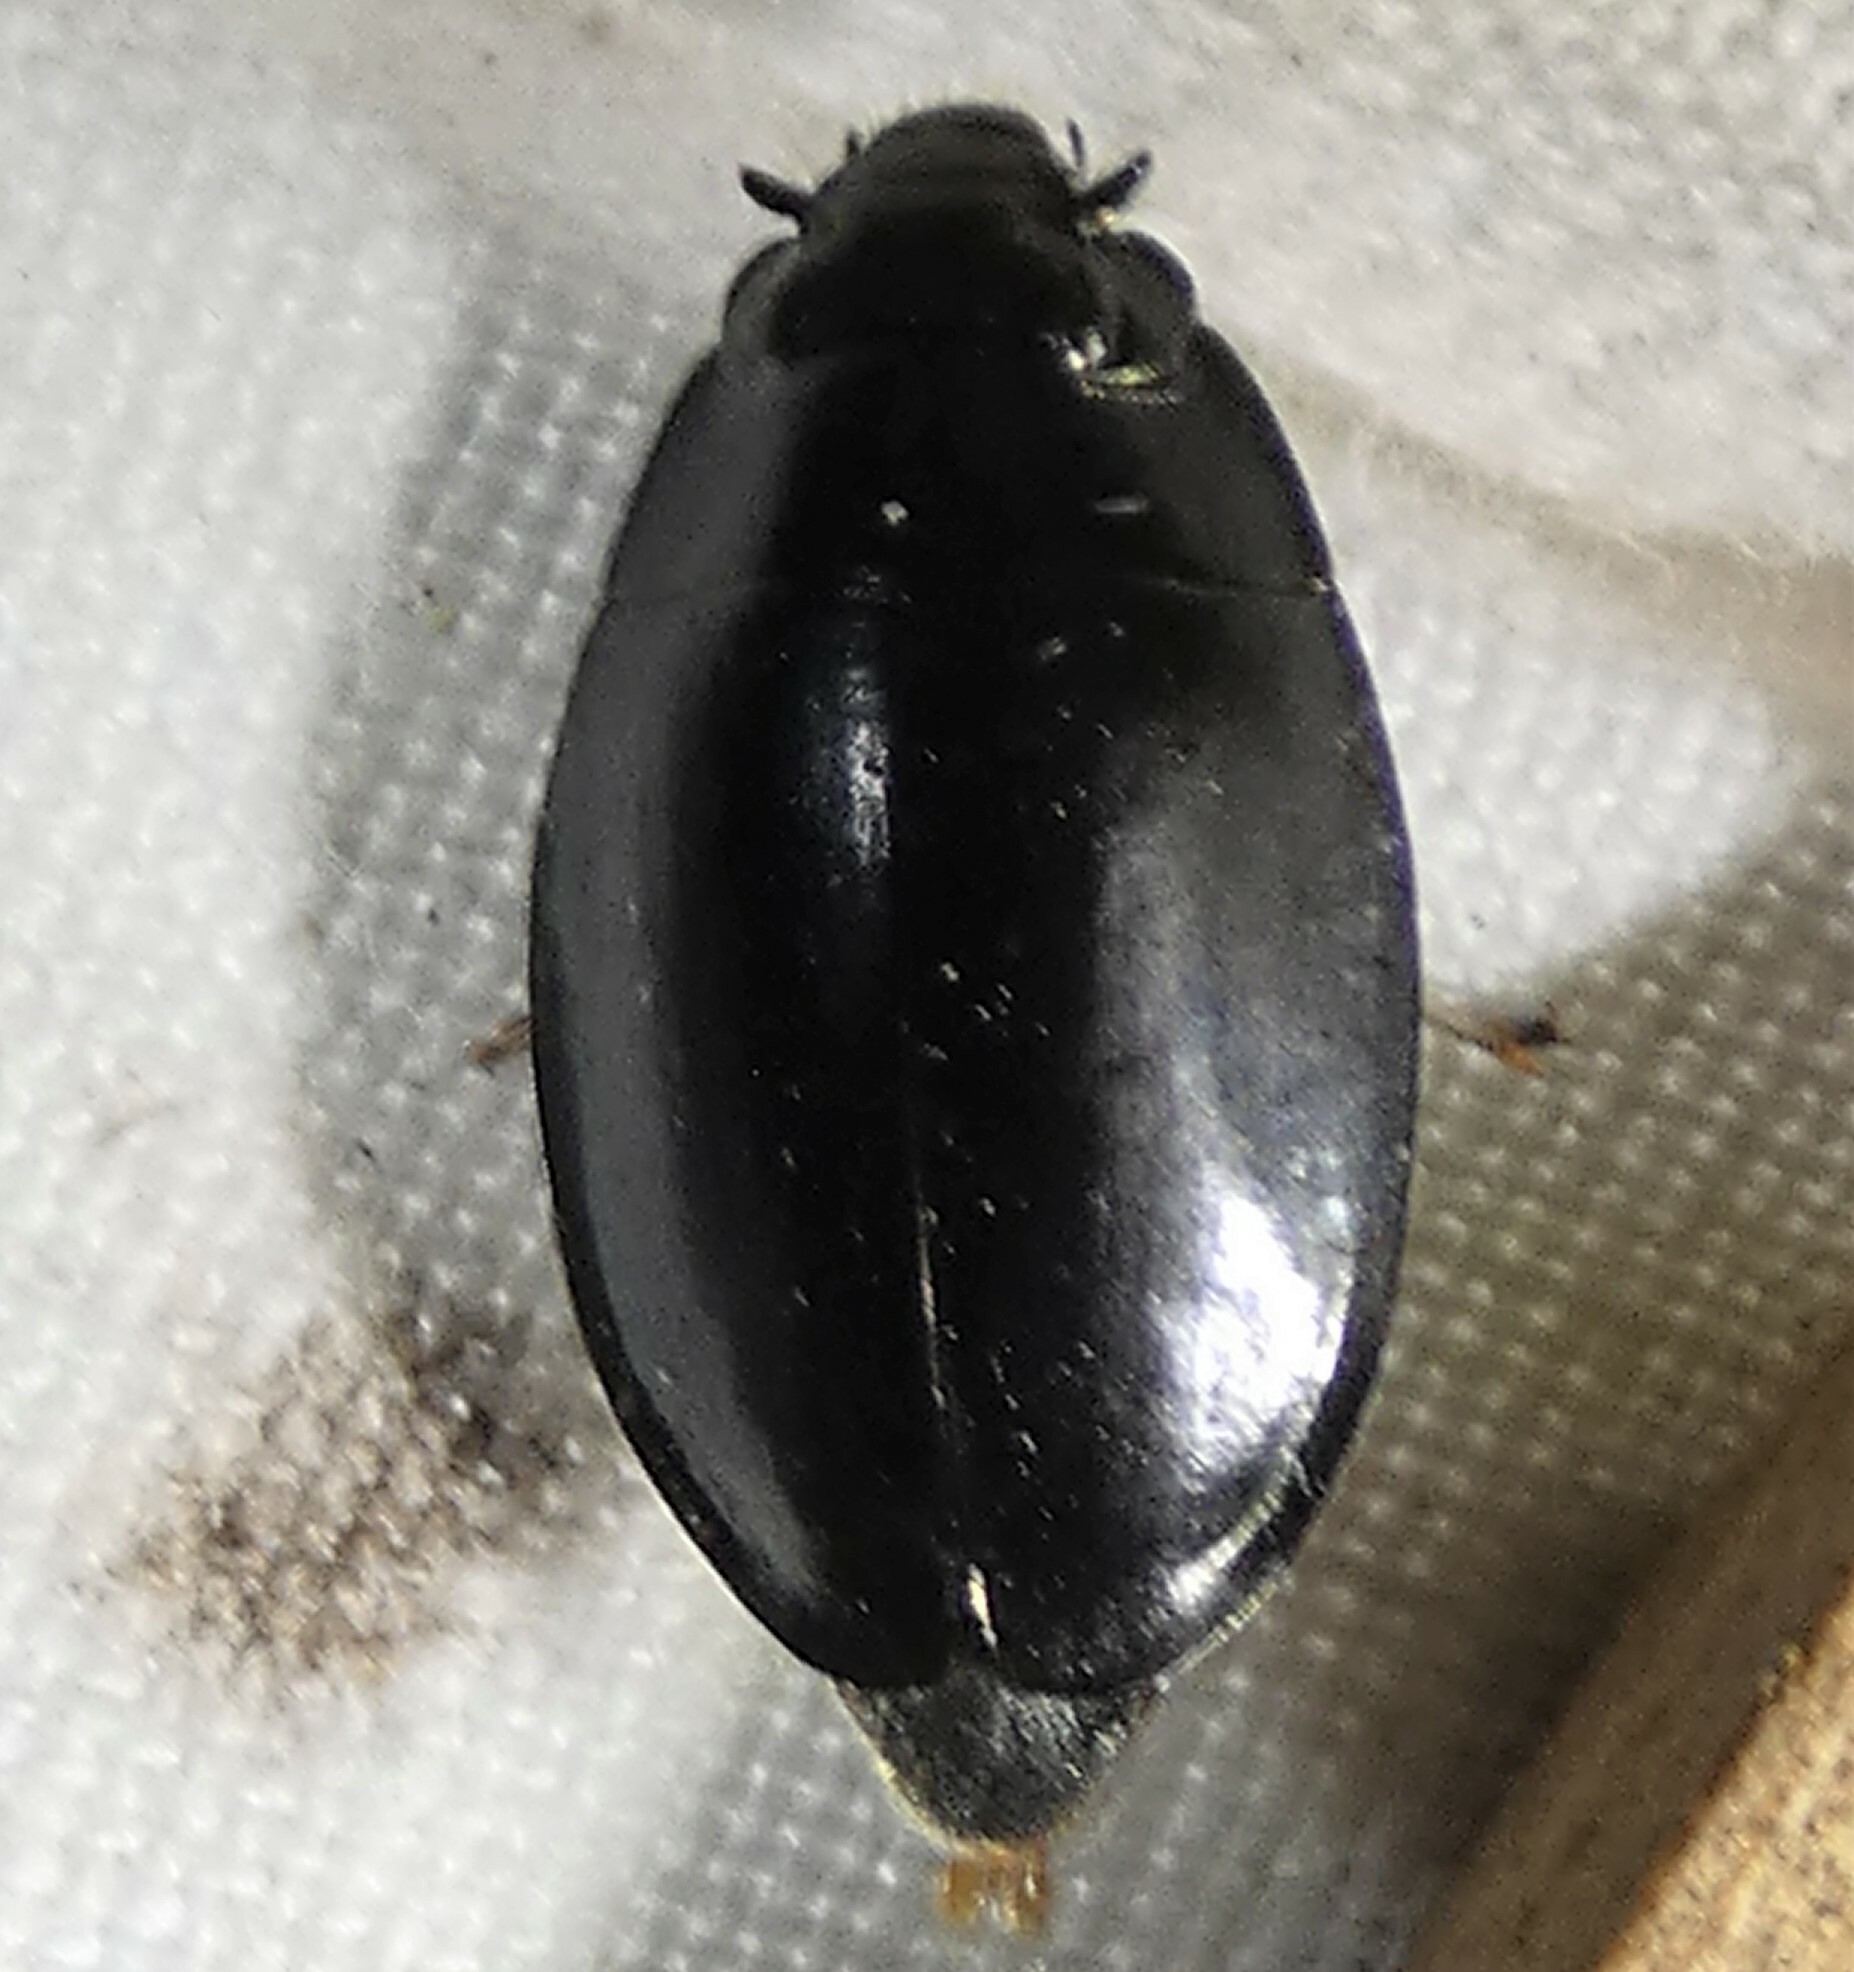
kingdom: Animalia
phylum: Arthropoda
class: Insecta
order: Coleoptera
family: Gyrinidae
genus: Dineutus
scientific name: Dineutus
